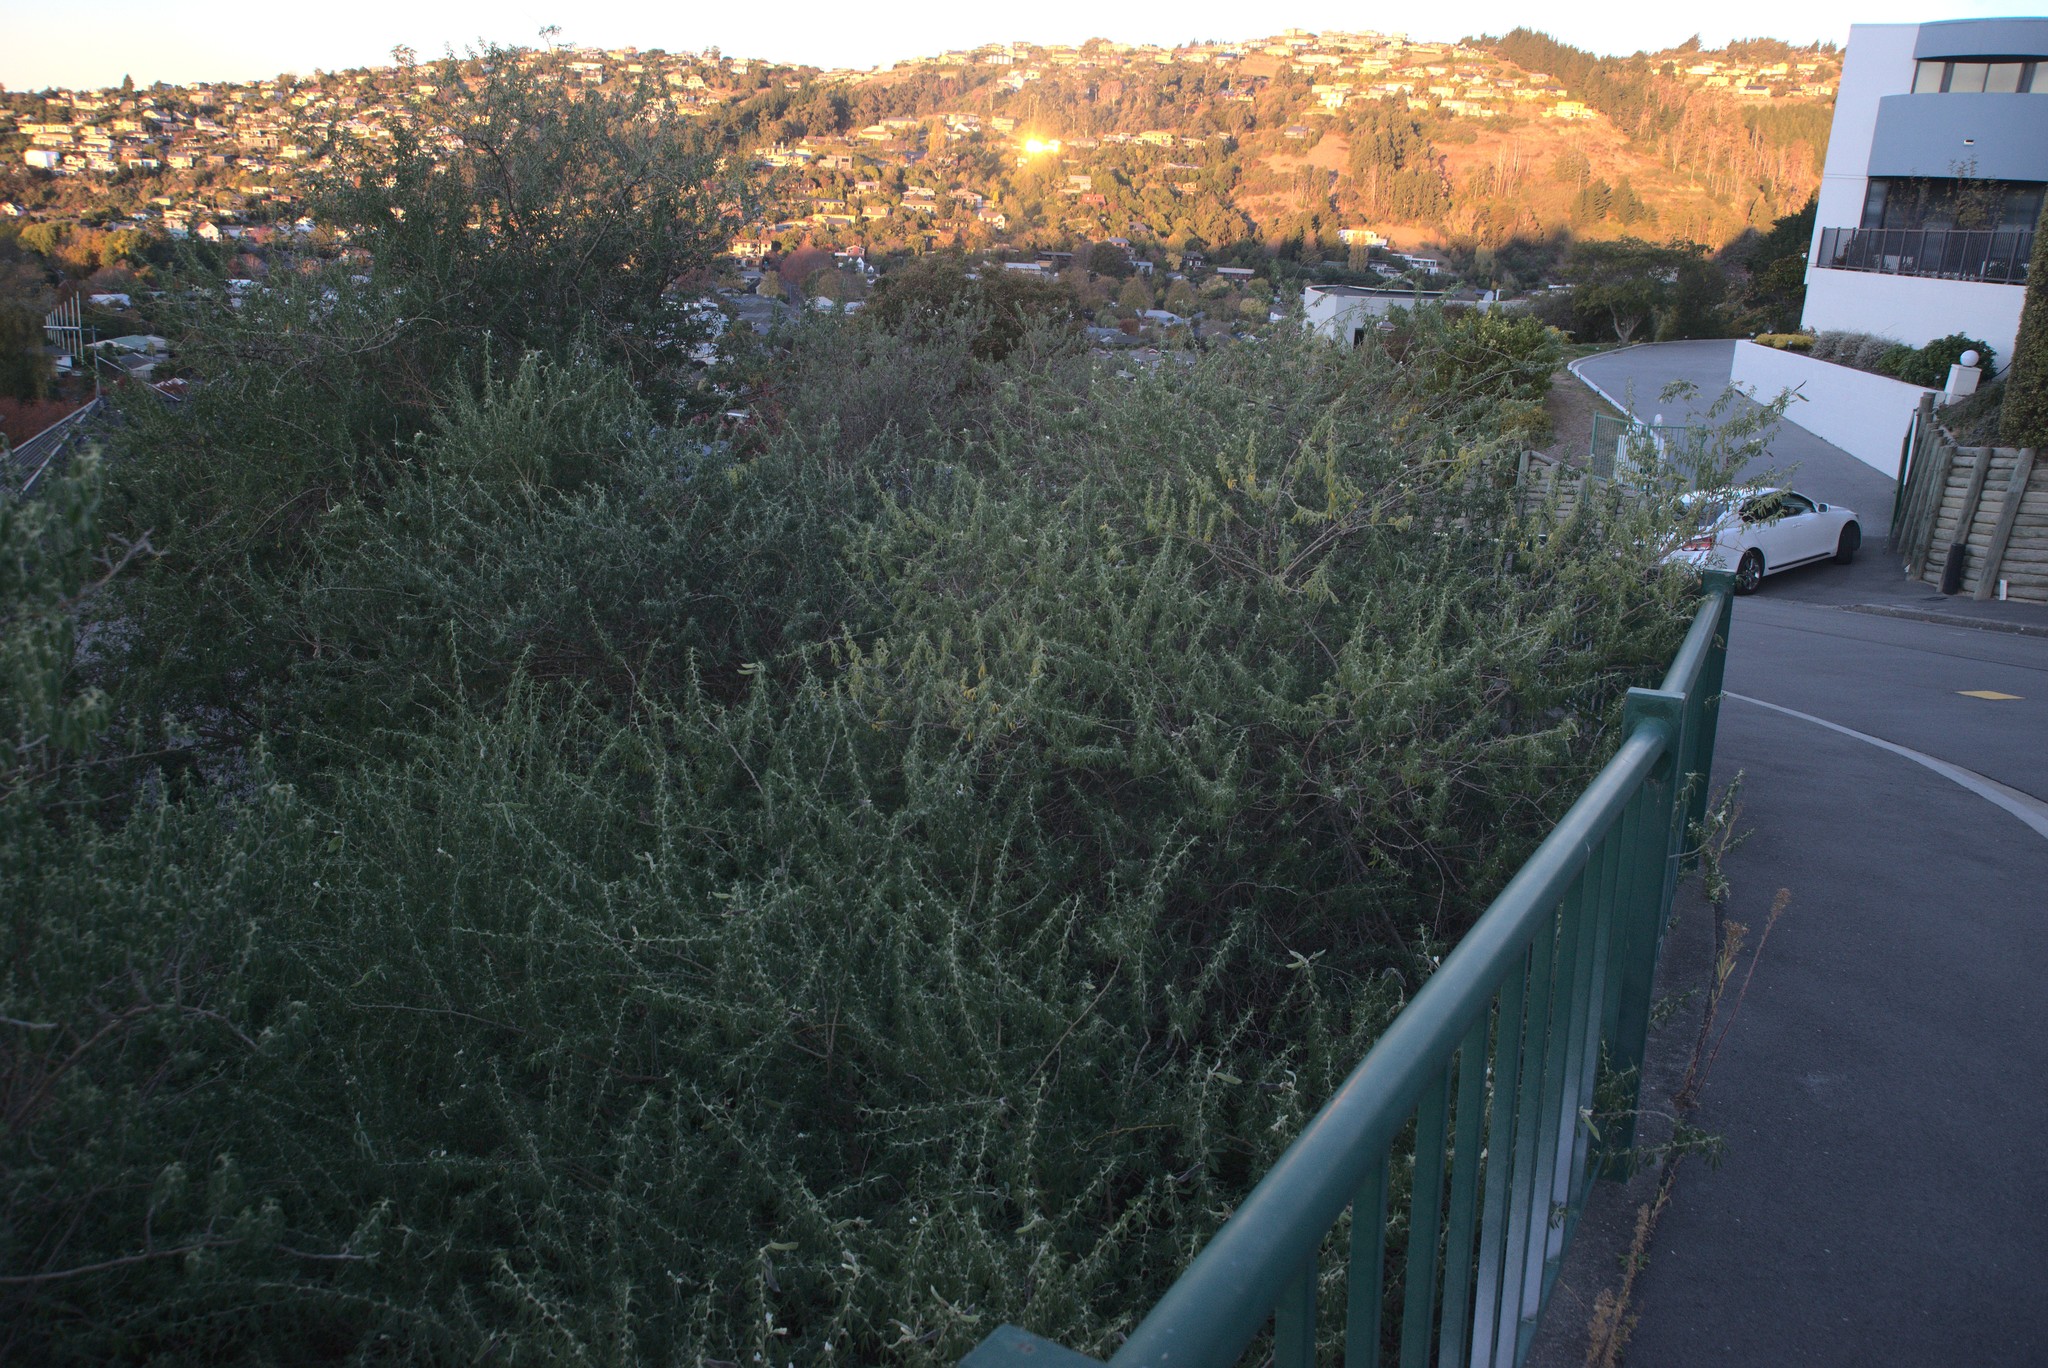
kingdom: Plantae
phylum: Tracheophyta
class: Magnoliopsida
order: Fabales
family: Fabaceae
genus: Chamaecytisus
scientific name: Chamaecytisus prolifer
